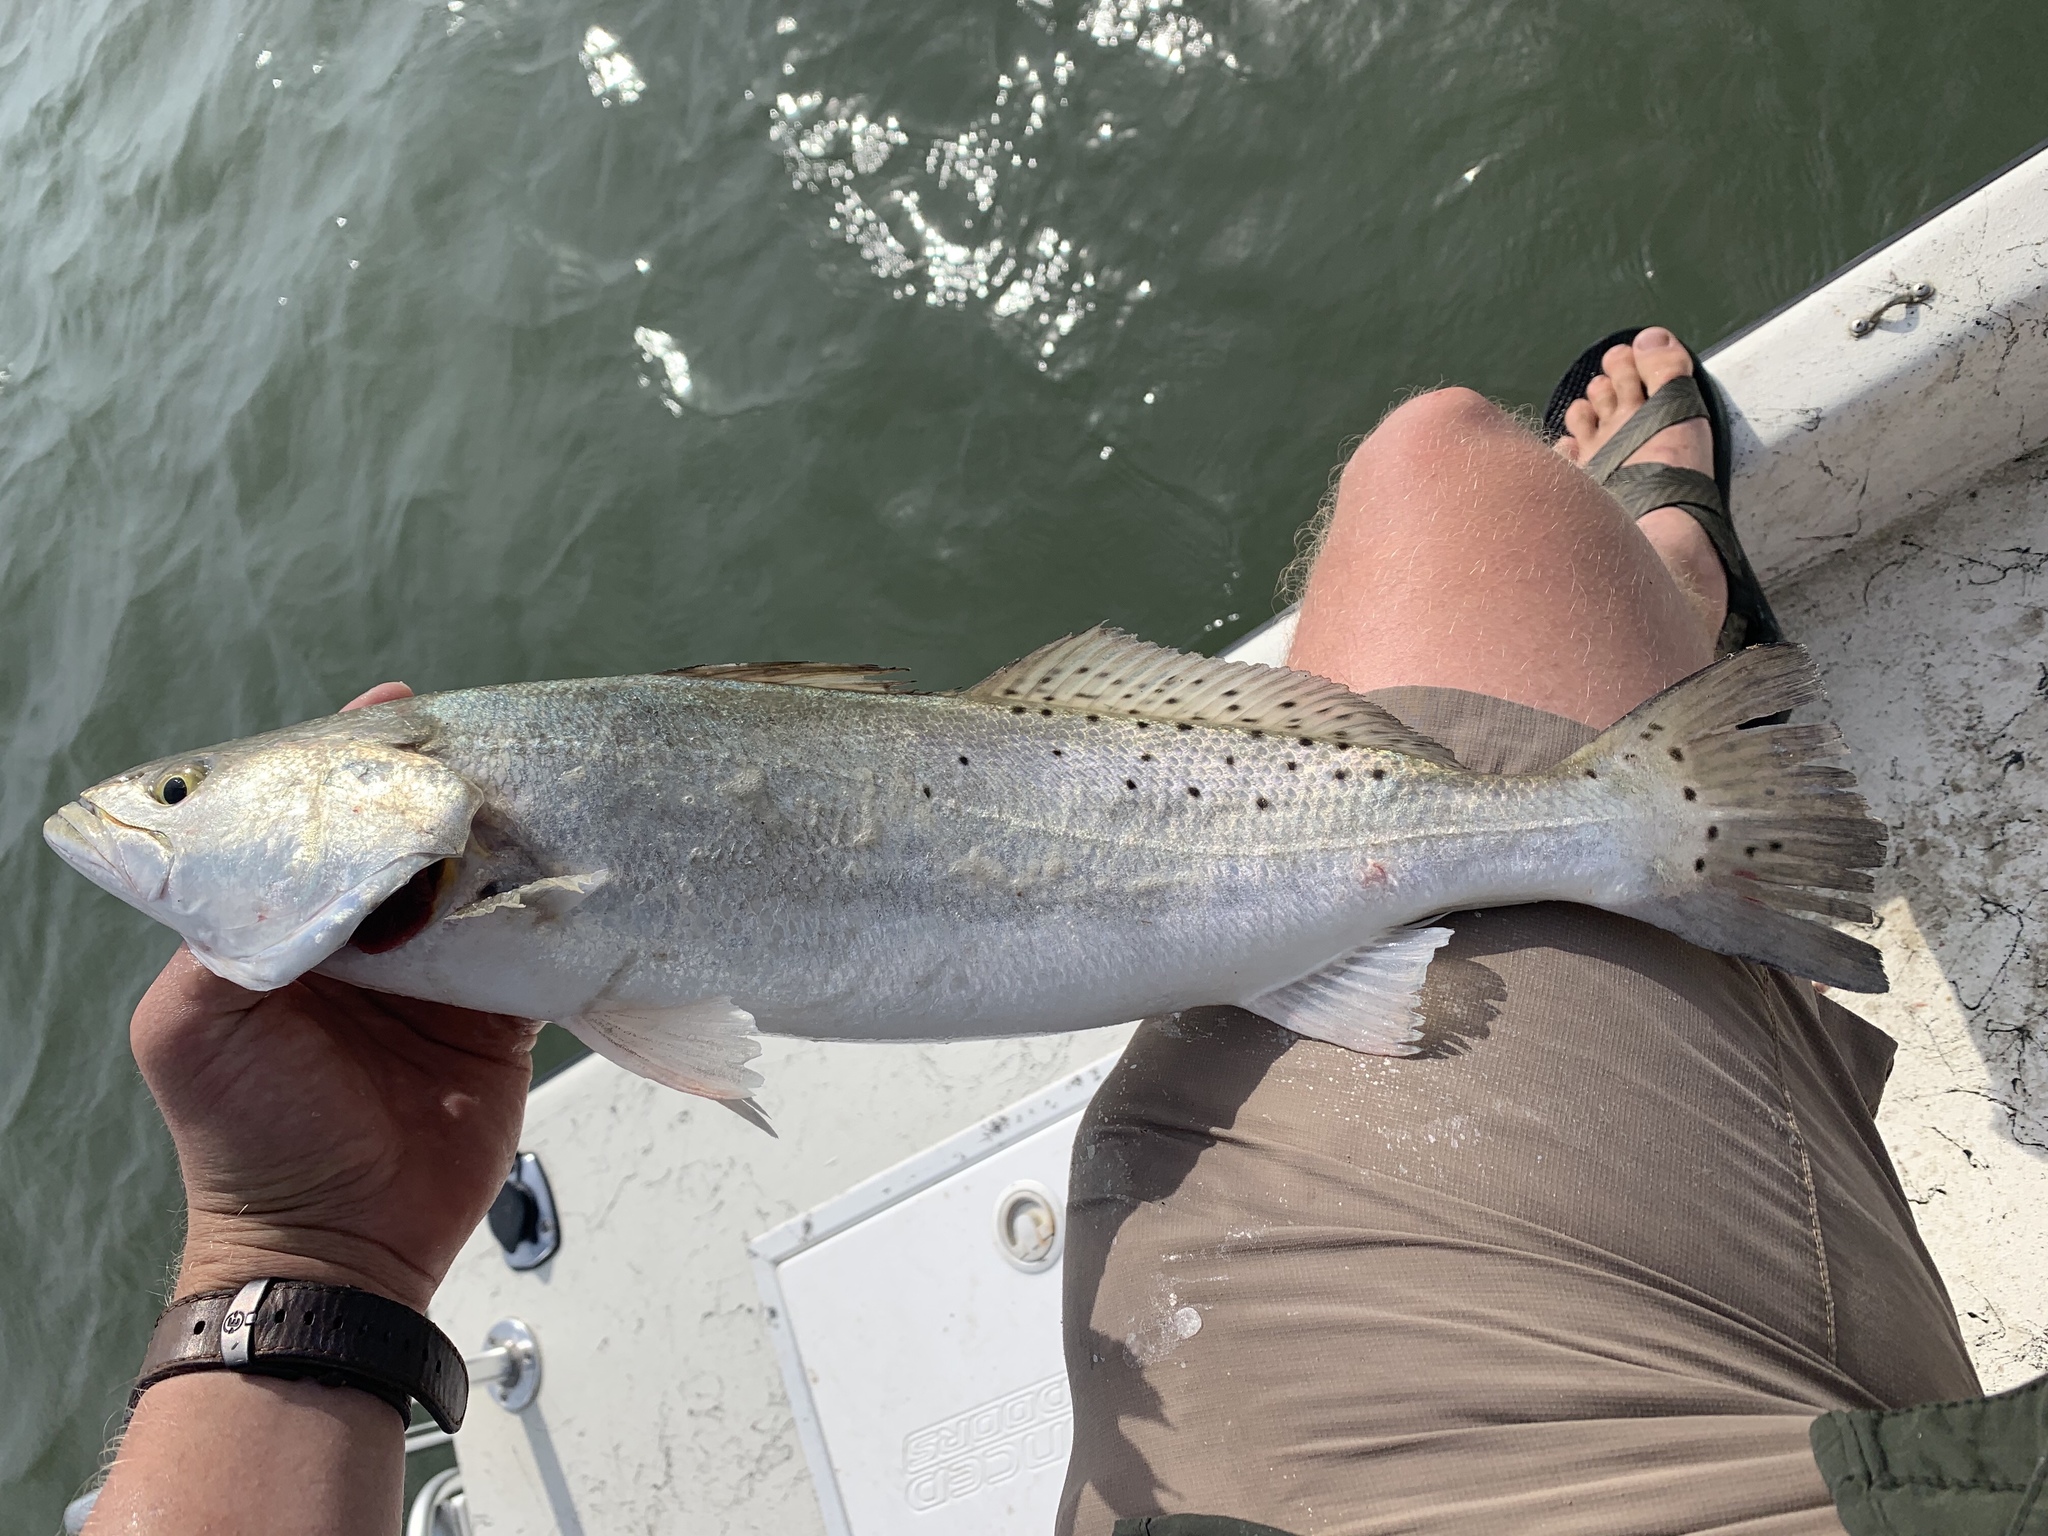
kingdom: Animalia
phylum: Chordata
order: Perciformes
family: Sciaenidae
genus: Cynoscion
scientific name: Cynoscion nebulosus
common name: Spotted seatrout
